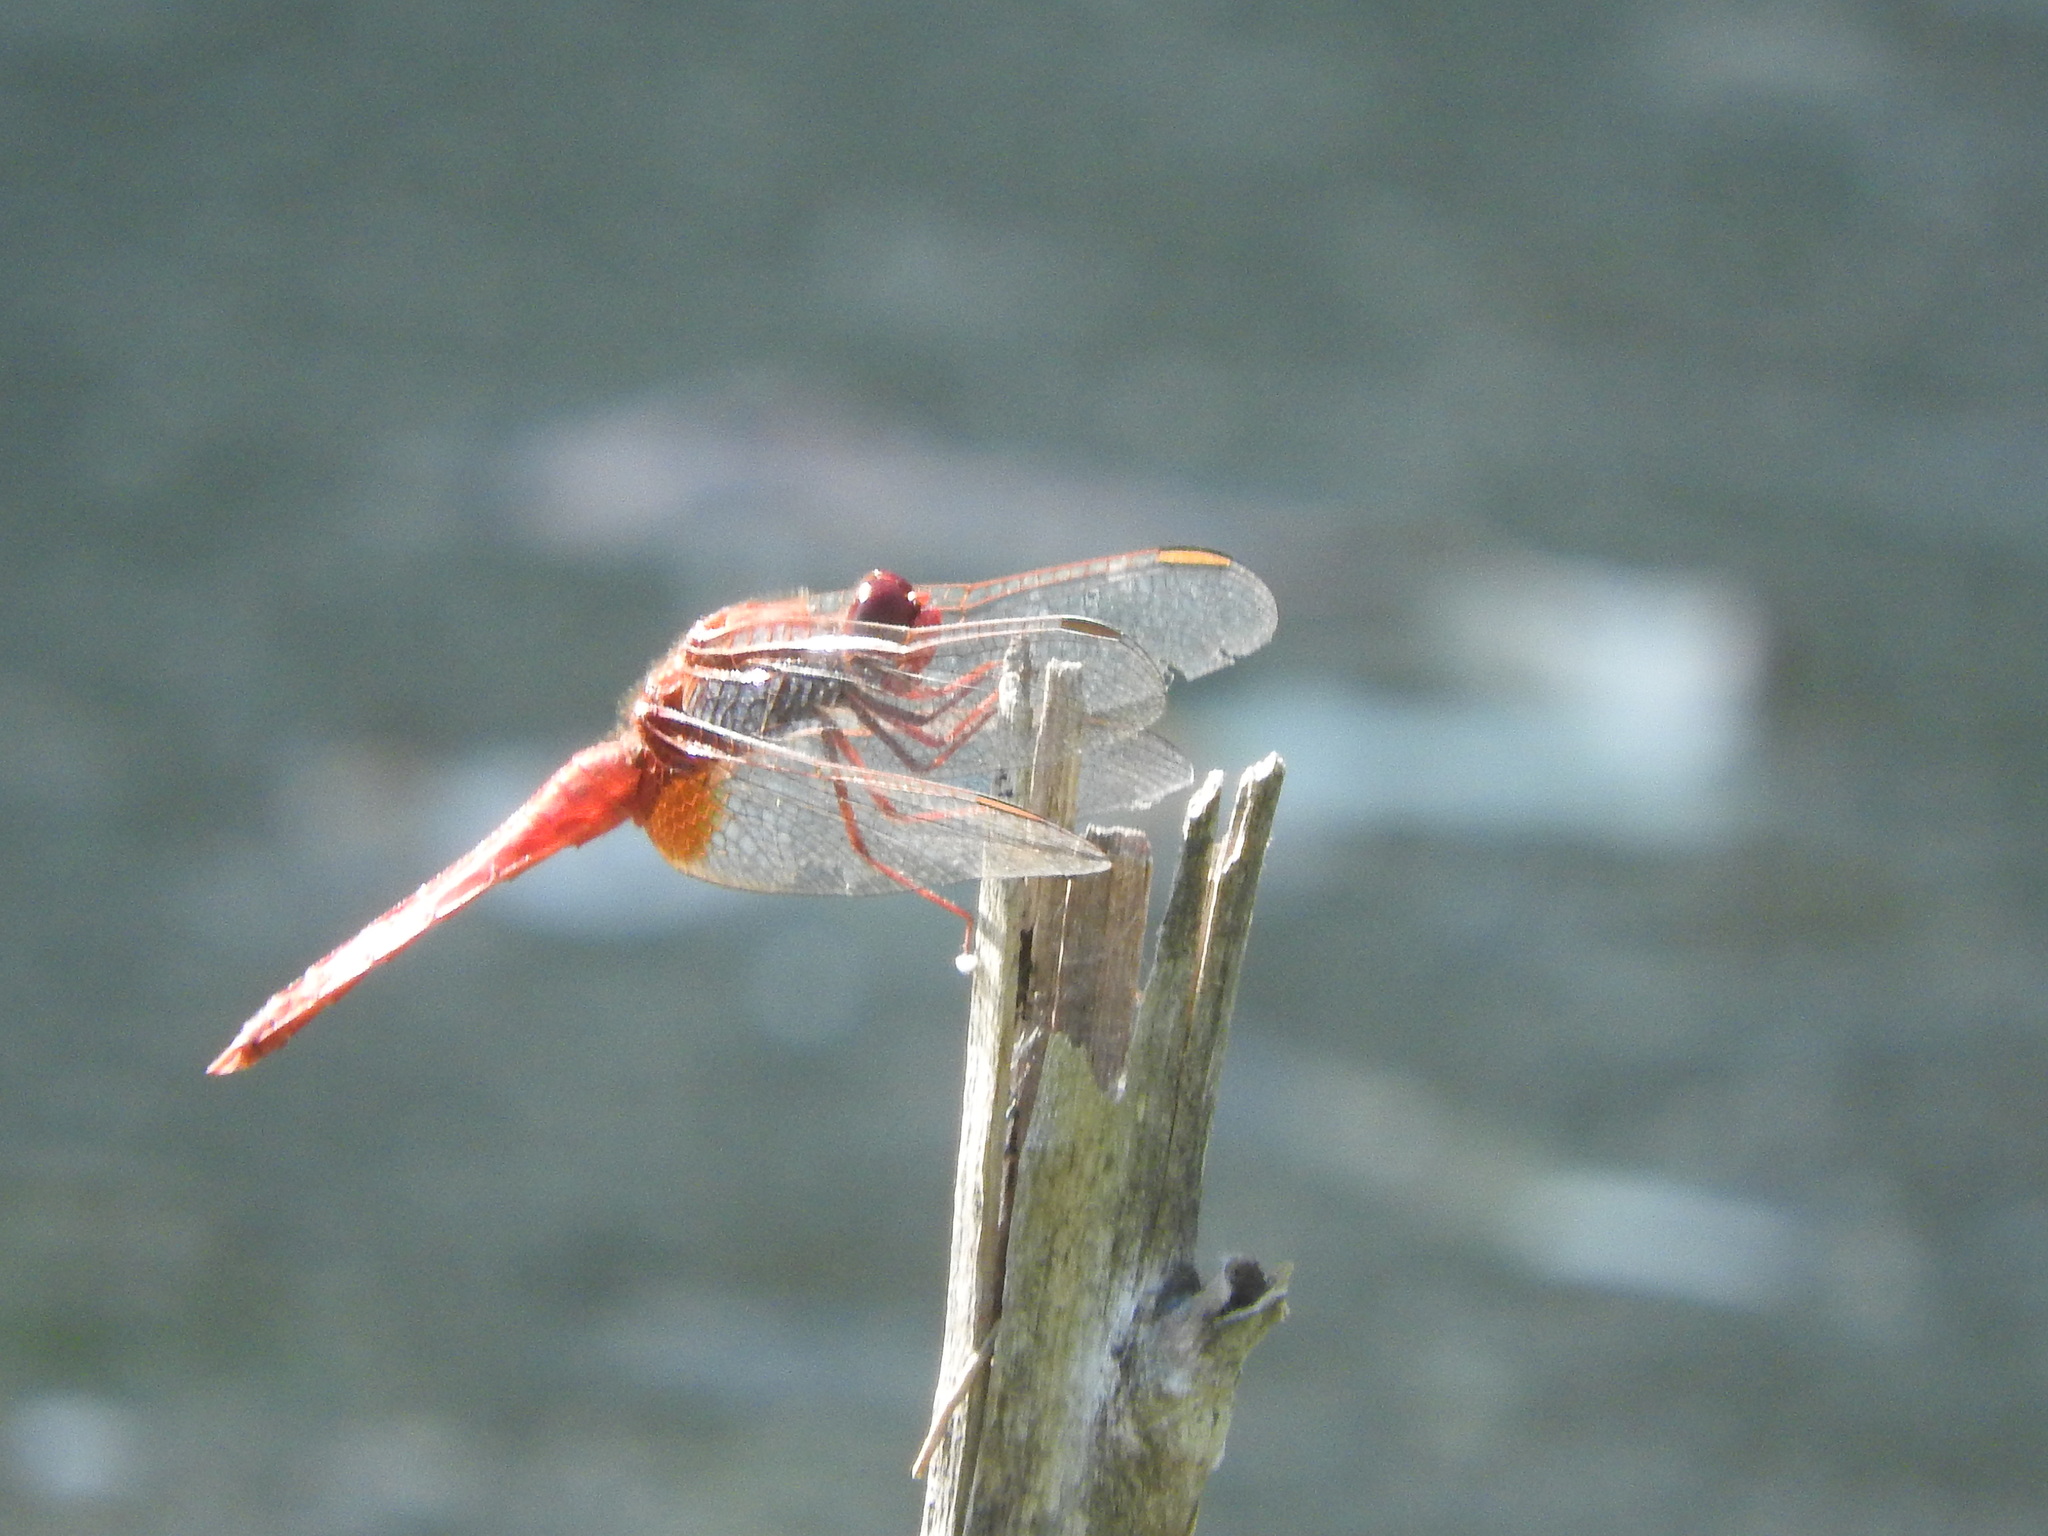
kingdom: Animalia
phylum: Arthropoda
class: Insecta
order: Odonata
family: Libellulidae
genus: Crocothemis
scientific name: Crocothemis erythraea
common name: Scarlet dragonfly
